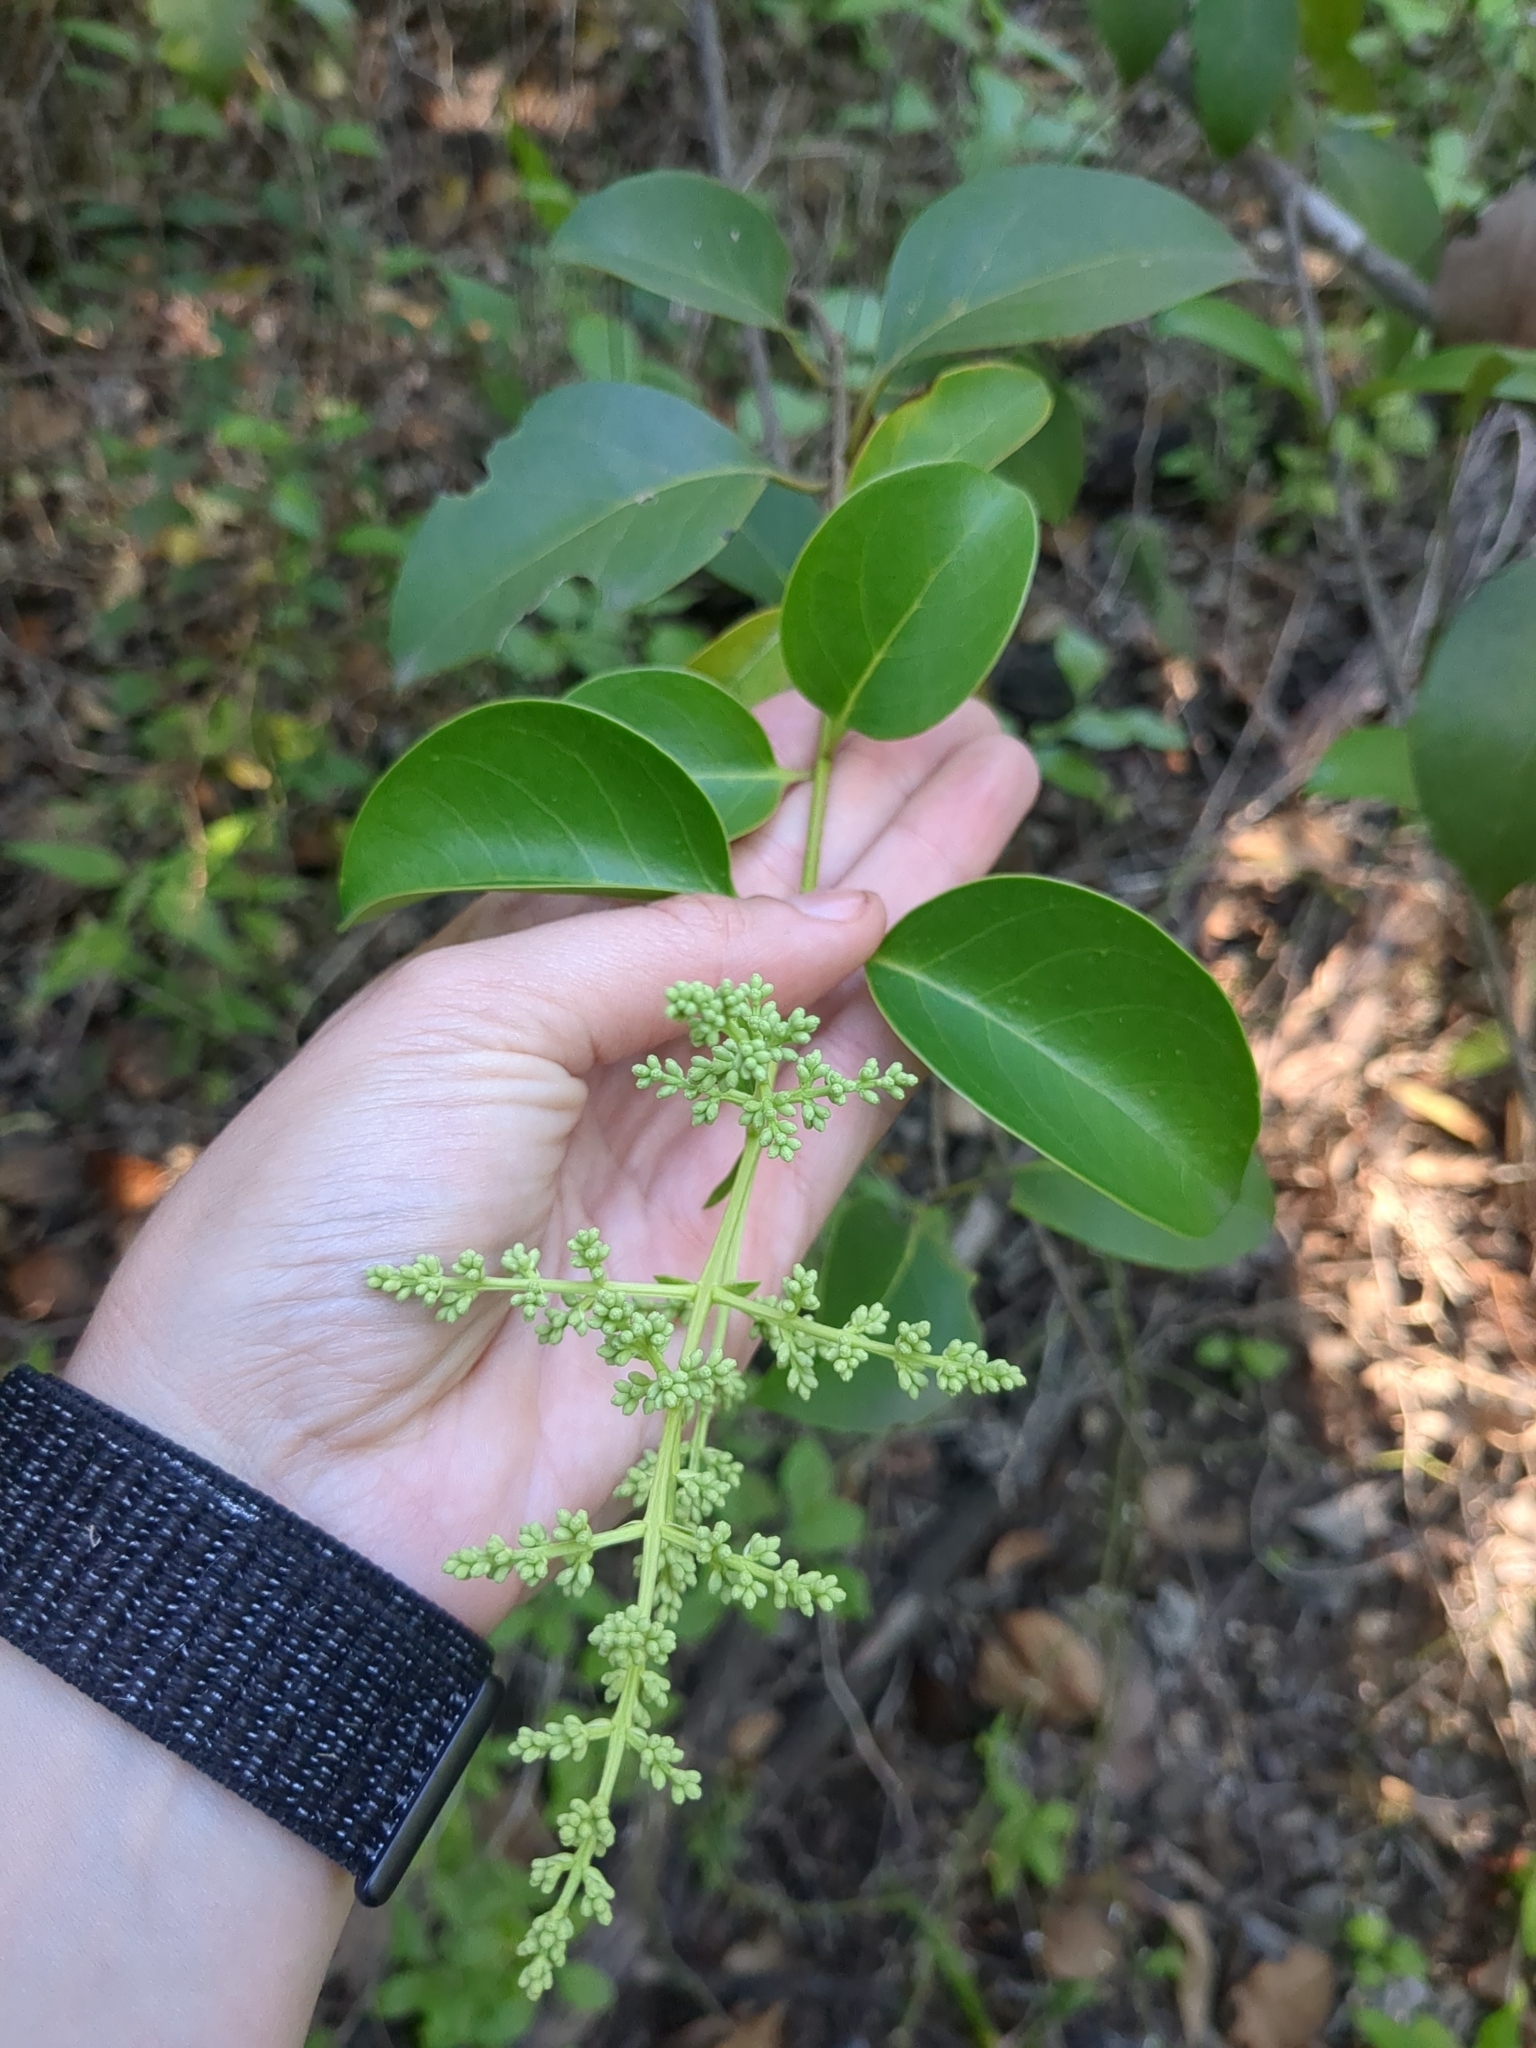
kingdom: Plantae
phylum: Tracheophyta
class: Magnoliopsida
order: Lamiales
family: Oleaceae
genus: Ligustrum
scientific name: Ligustrum lucidum
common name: Glossy privet
